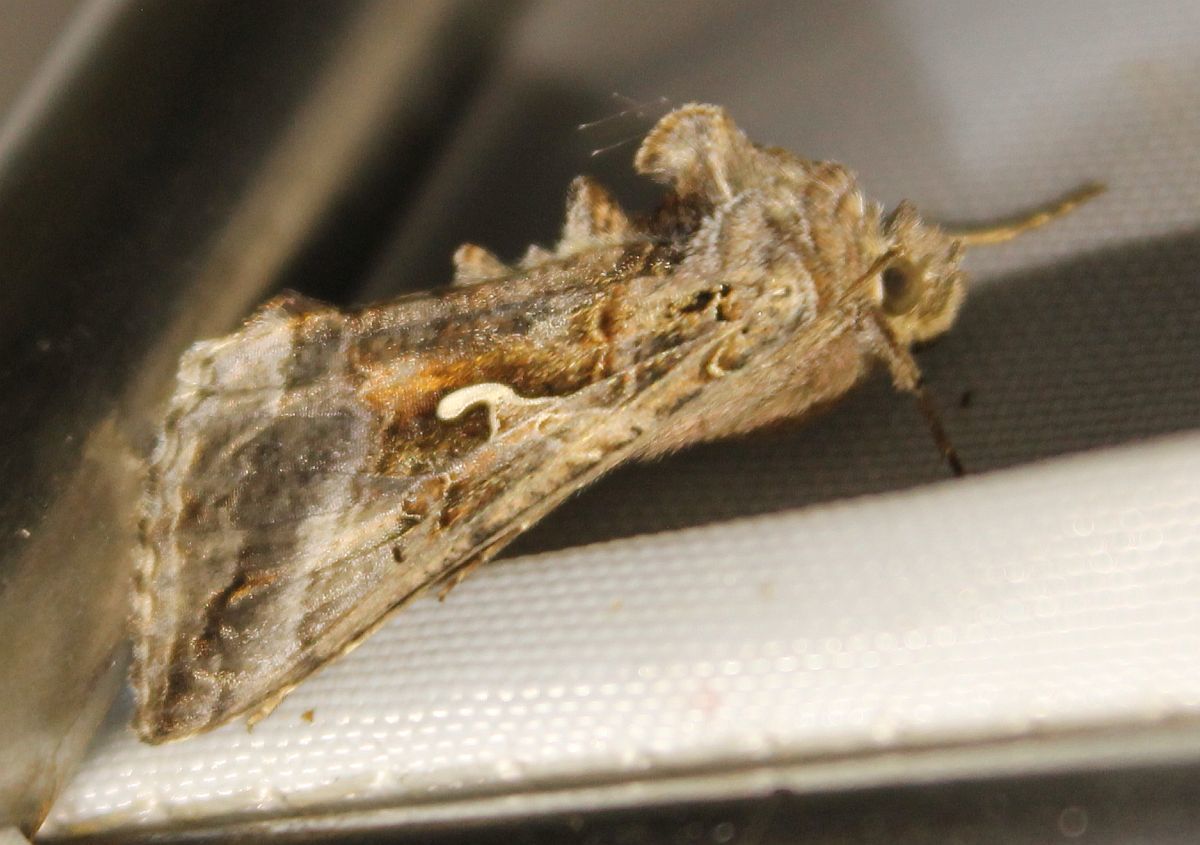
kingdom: Animalia
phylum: Arthropoda
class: Insecta
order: Lepidoptera
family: Noctuidae
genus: Autographa
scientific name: Autographa gamma
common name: Silver y
